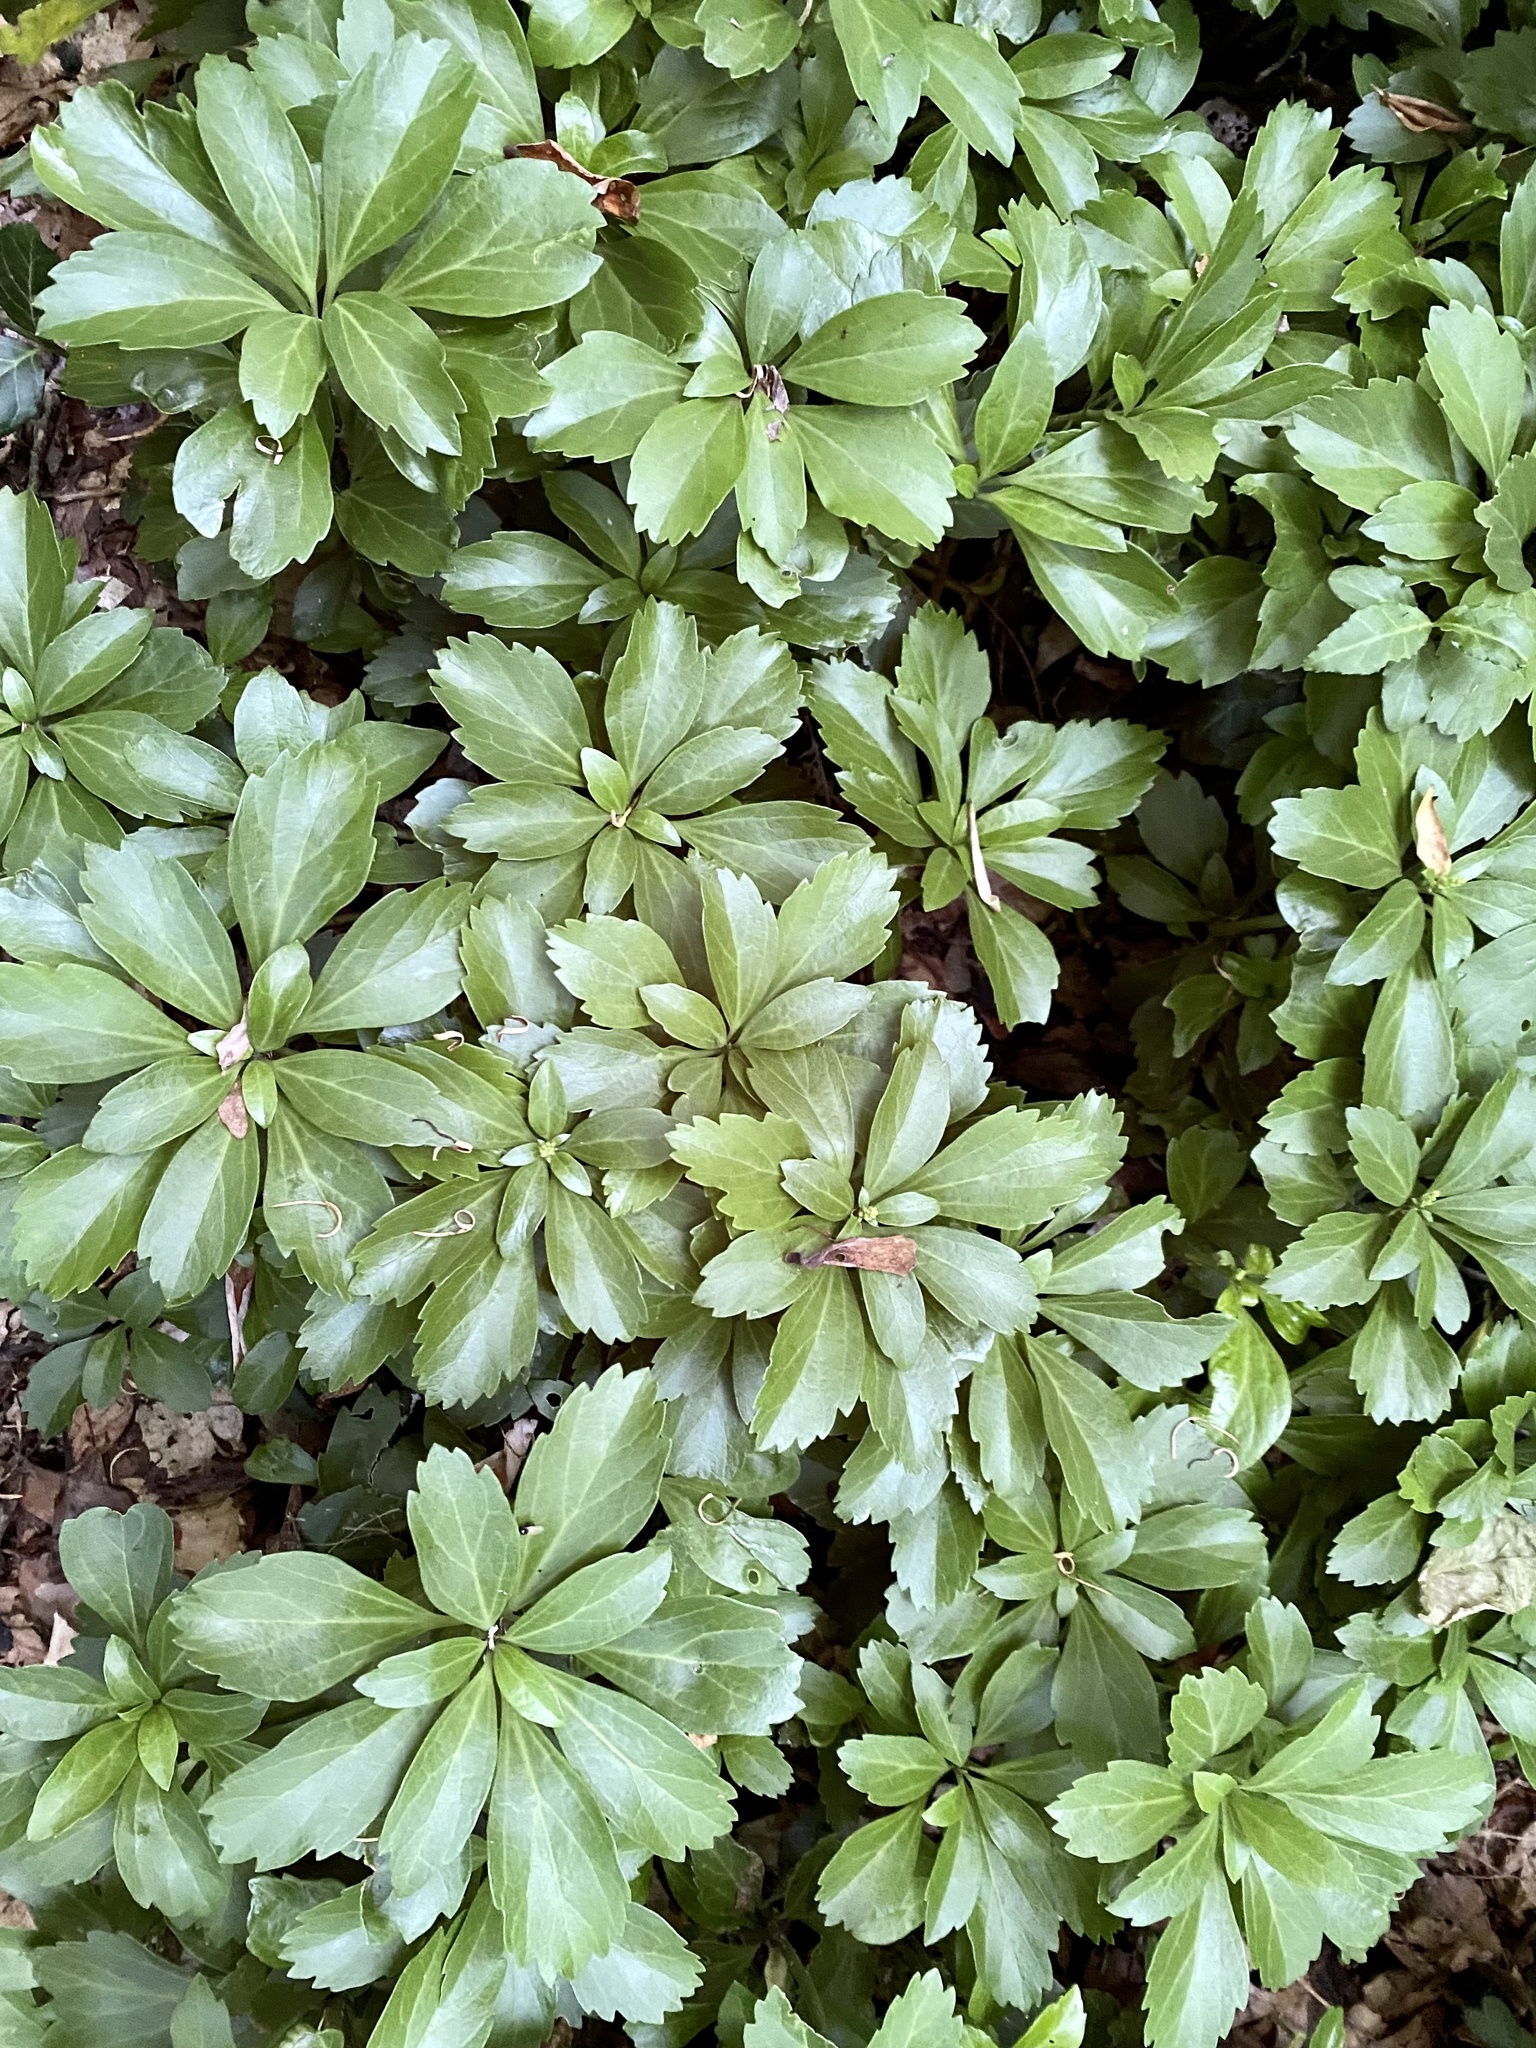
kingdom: Plantae
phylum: Tracheophyta
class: Magnoliopsida
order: Buxales
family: Buxaceae
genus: Pachysandra
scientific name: Pachysandra terminalis
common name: Japanese pachysandra
